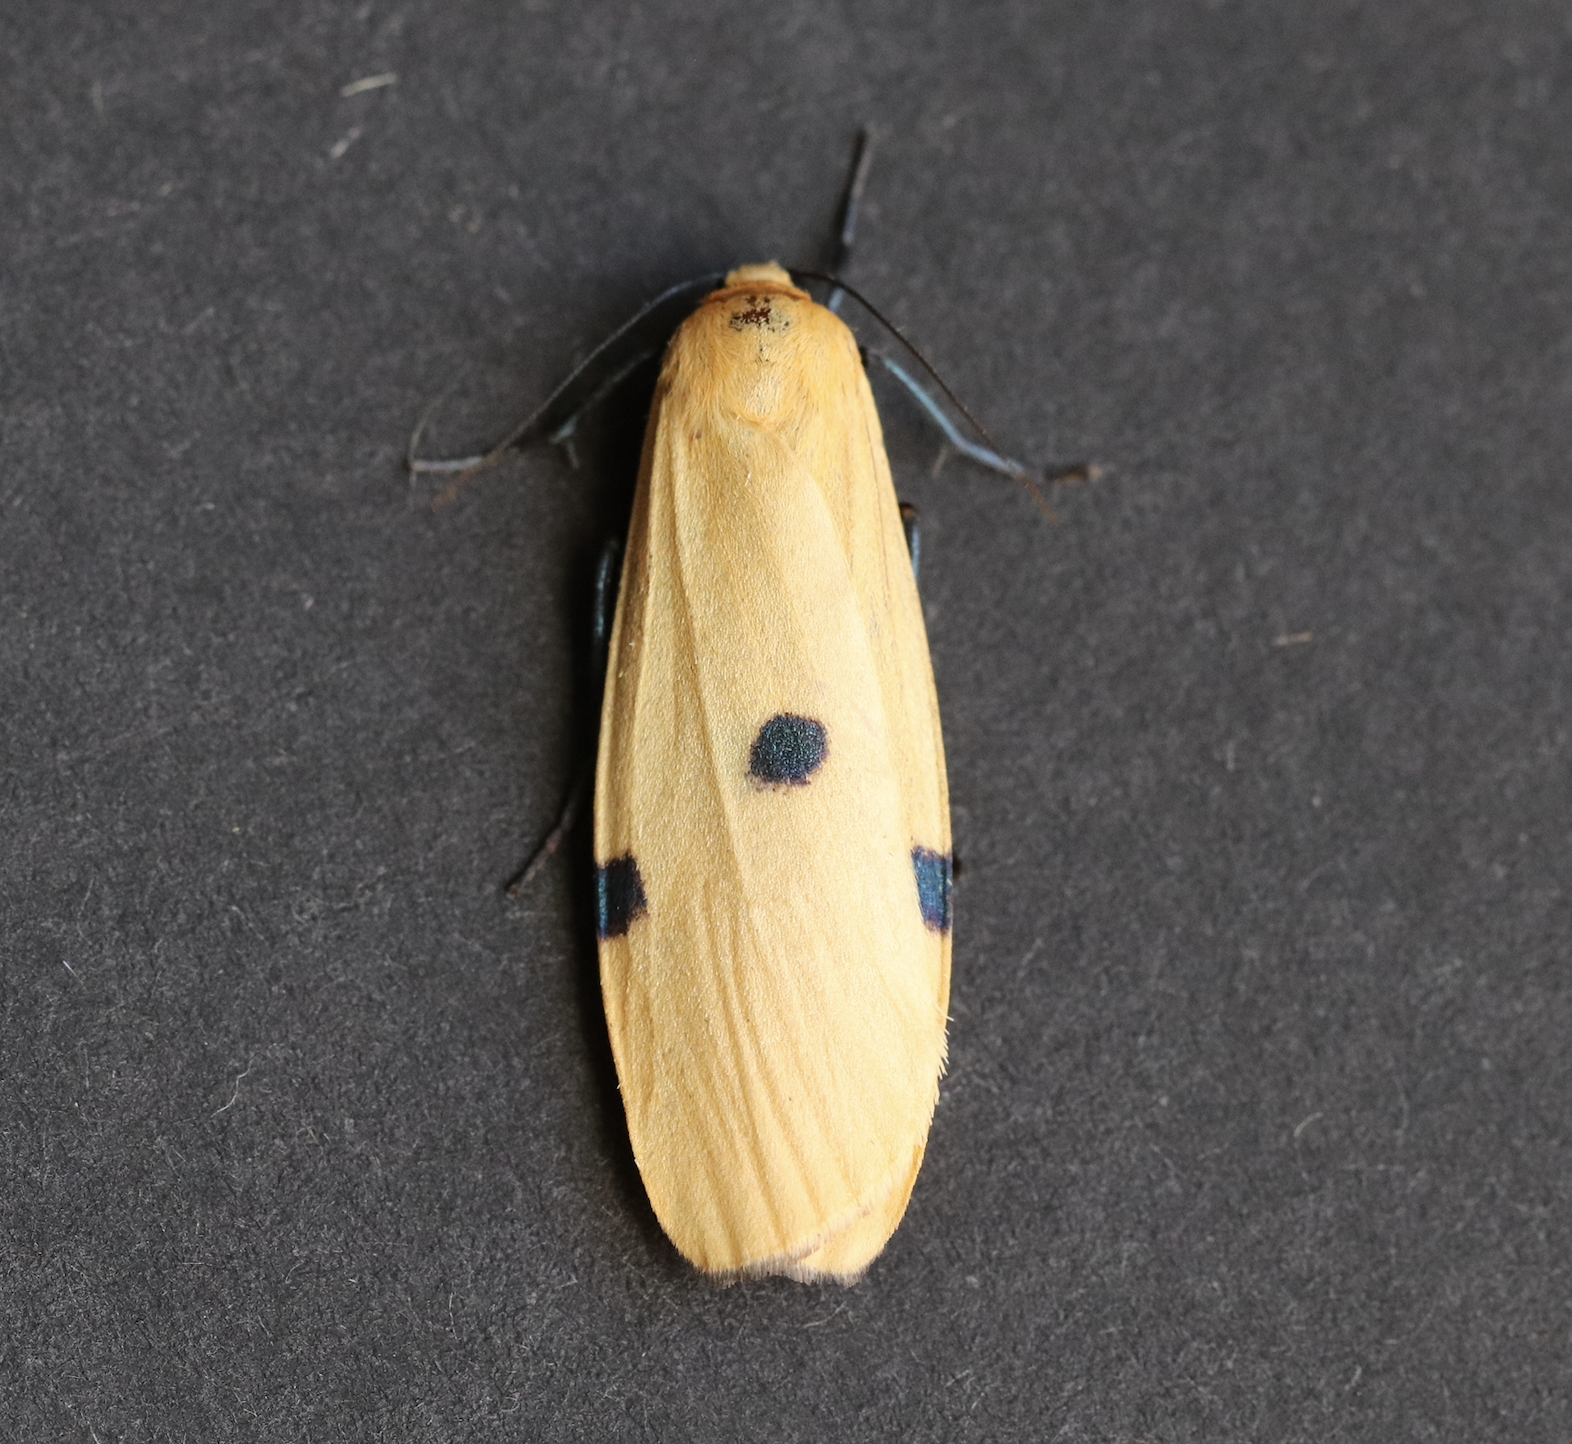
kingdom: Animalia
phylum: Arthropoda
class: Insecta
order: Lepidoptera
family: Erebidae
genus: Lithosia
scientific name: Lithosia quadra
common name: Four-spotted footman
